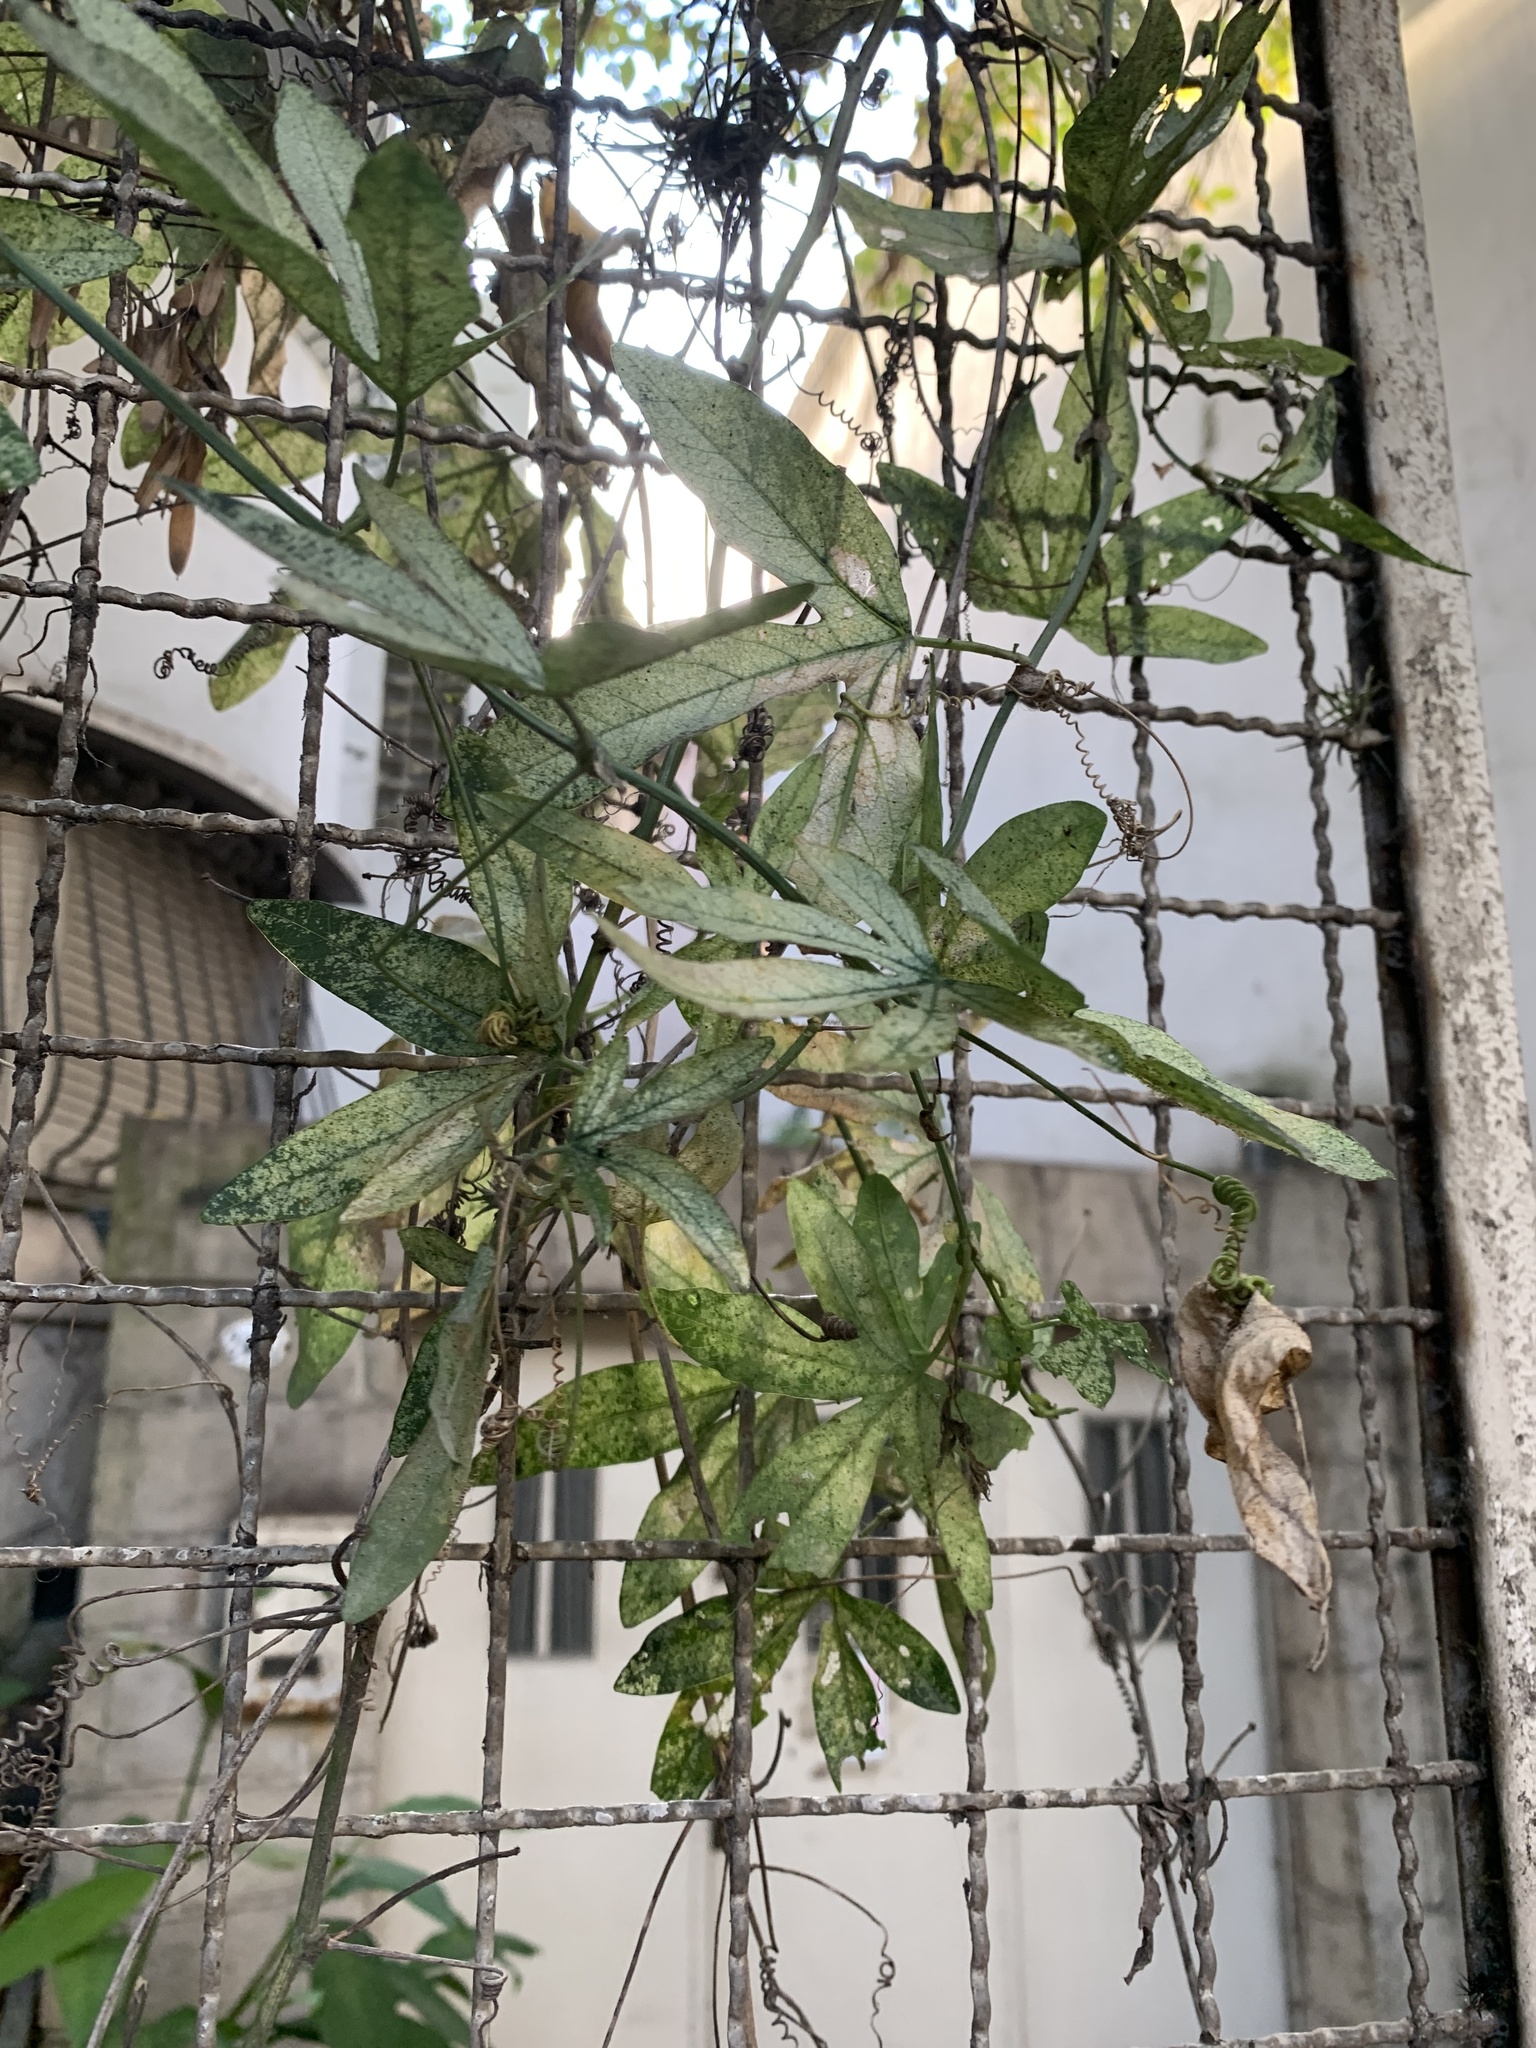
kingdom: Plantae
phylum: Tracheophyta
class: Magnoliopsida
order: Malpighiales
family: Passifloraceae
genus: Passiflora
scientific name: Passiflora caerulea
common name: Blue passionflower
